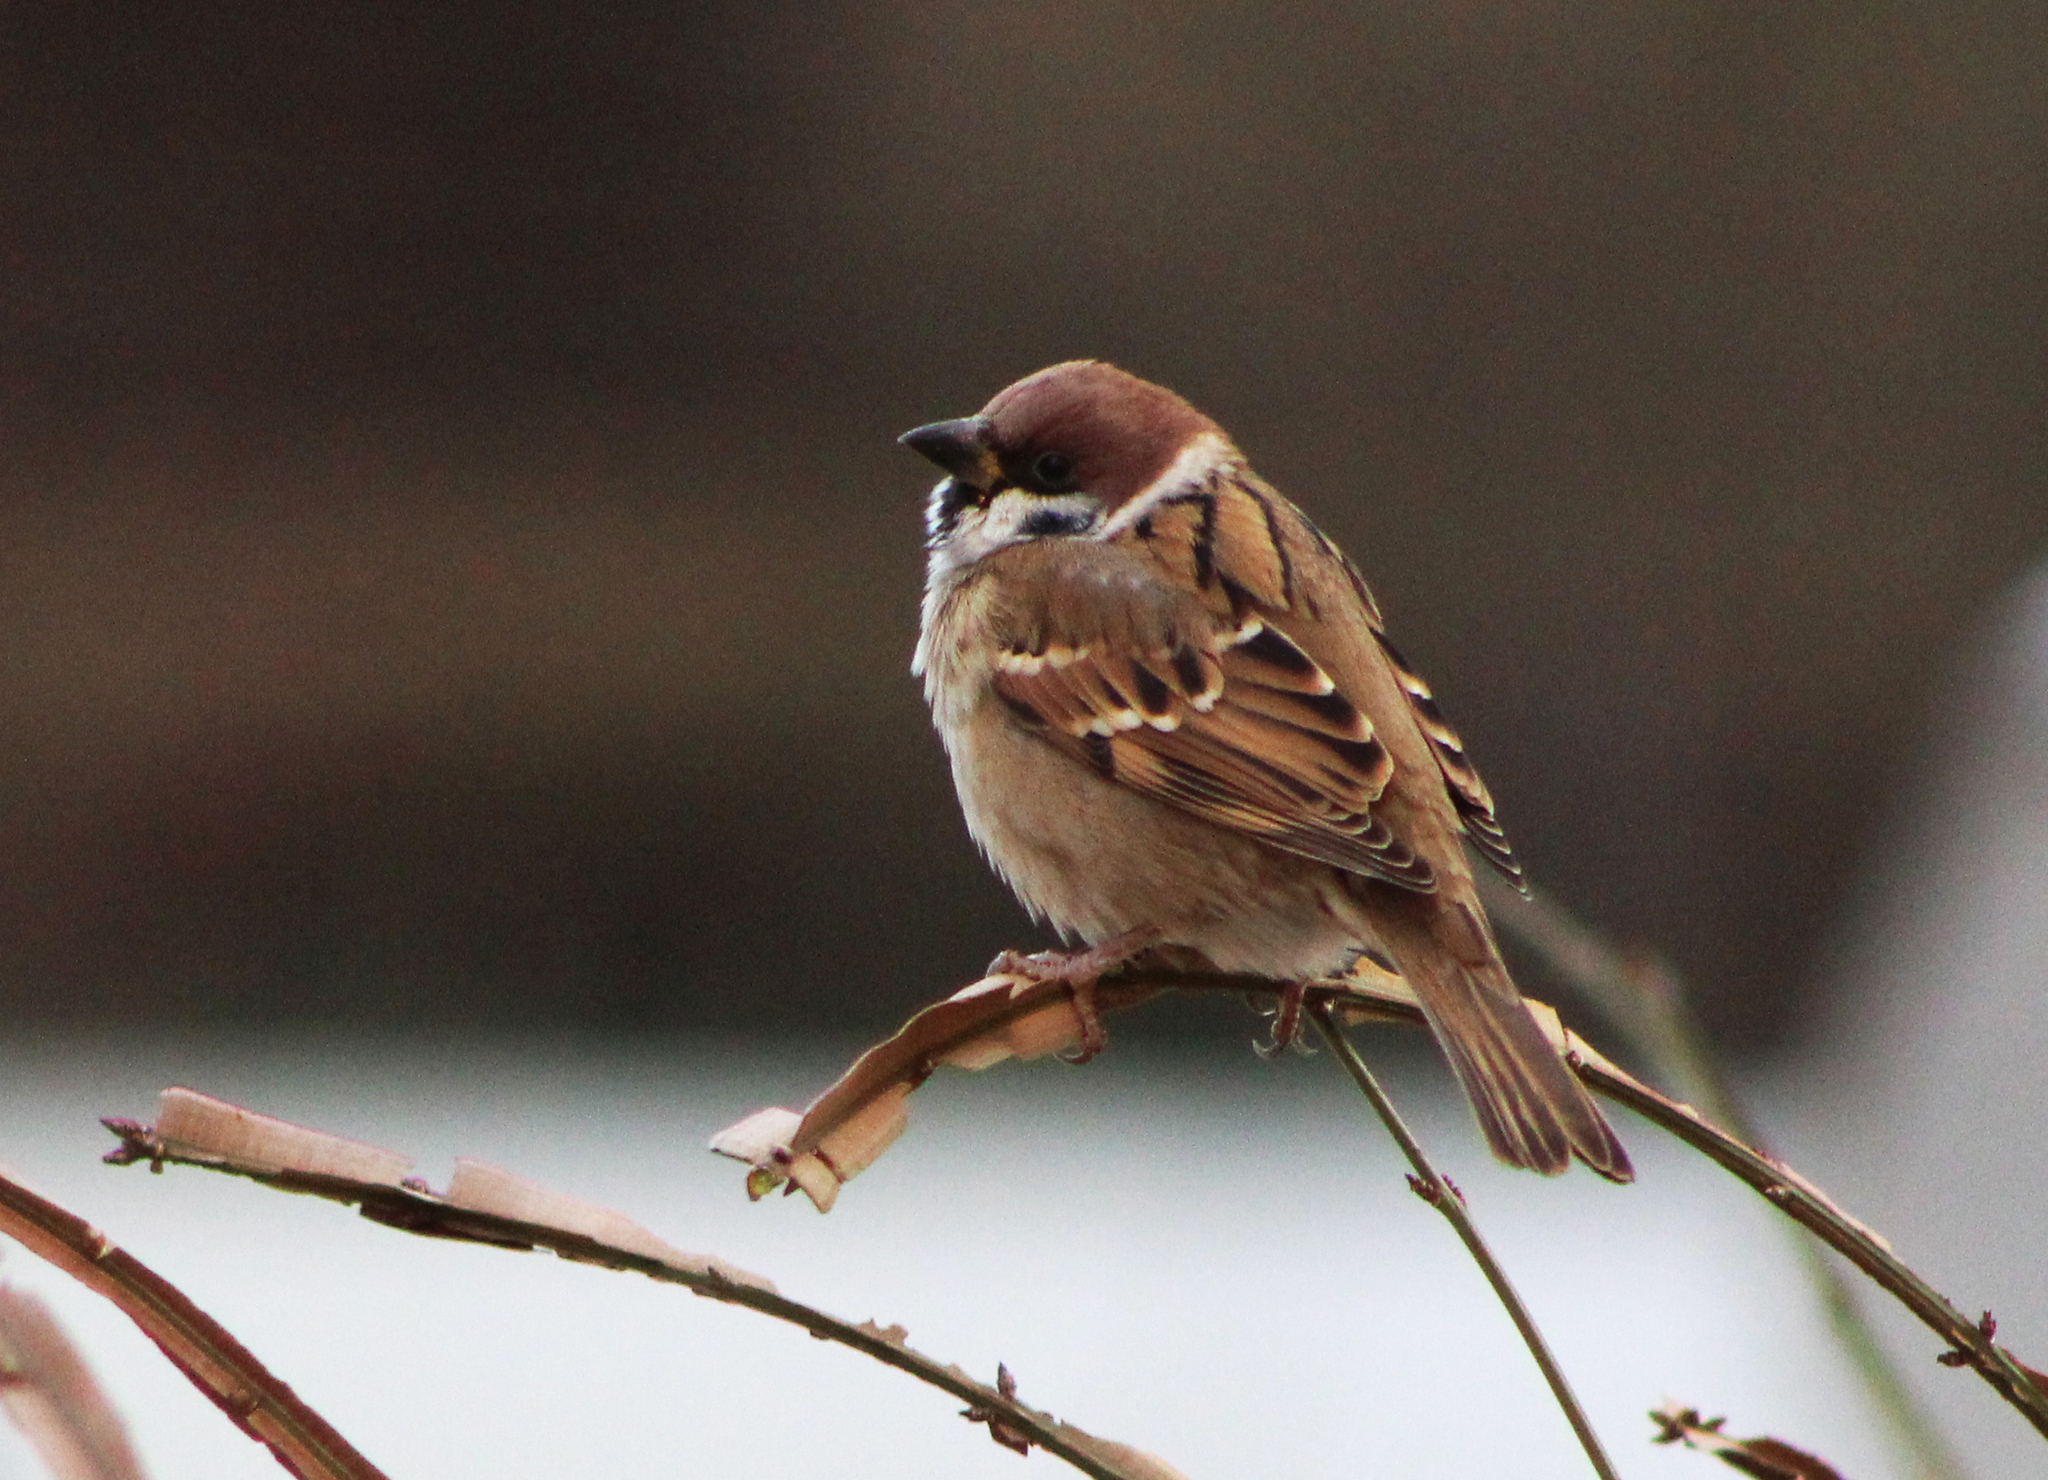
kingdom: Animalia
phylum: Chordata
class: Aves
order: Passeriformes
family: Passeridae
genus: Passer
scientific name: Passer montanus
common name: Eurasian tree sparrow
